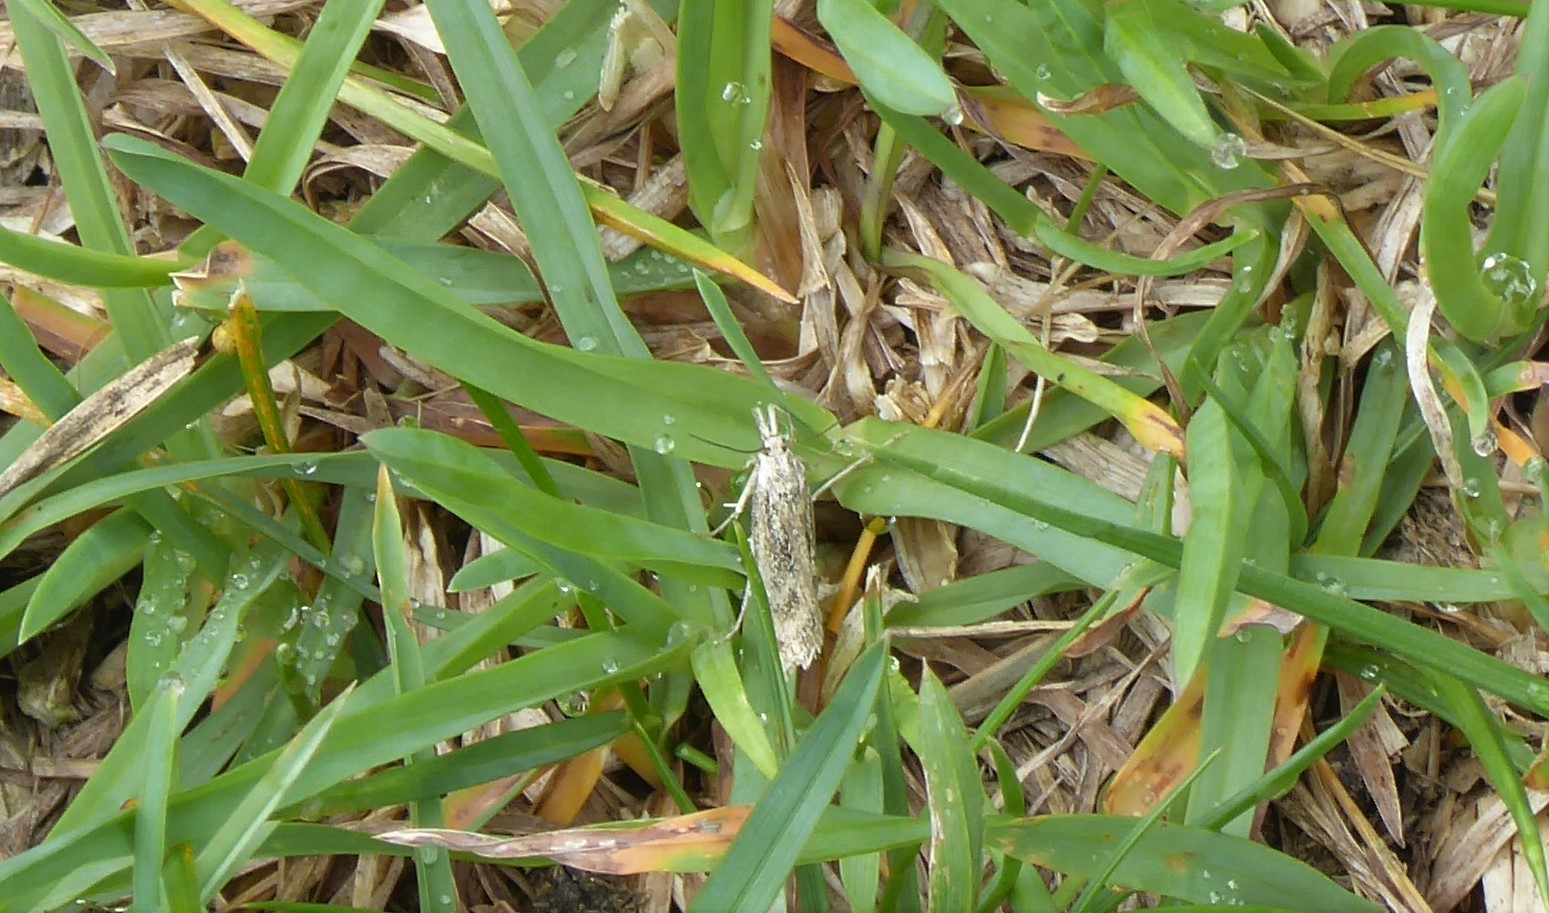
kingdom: Animalia
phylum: Arthropoda
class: Insecta
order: Lepidoptera
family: Crambidae
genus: Orocrambus
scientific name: Orocrambus corruptus
